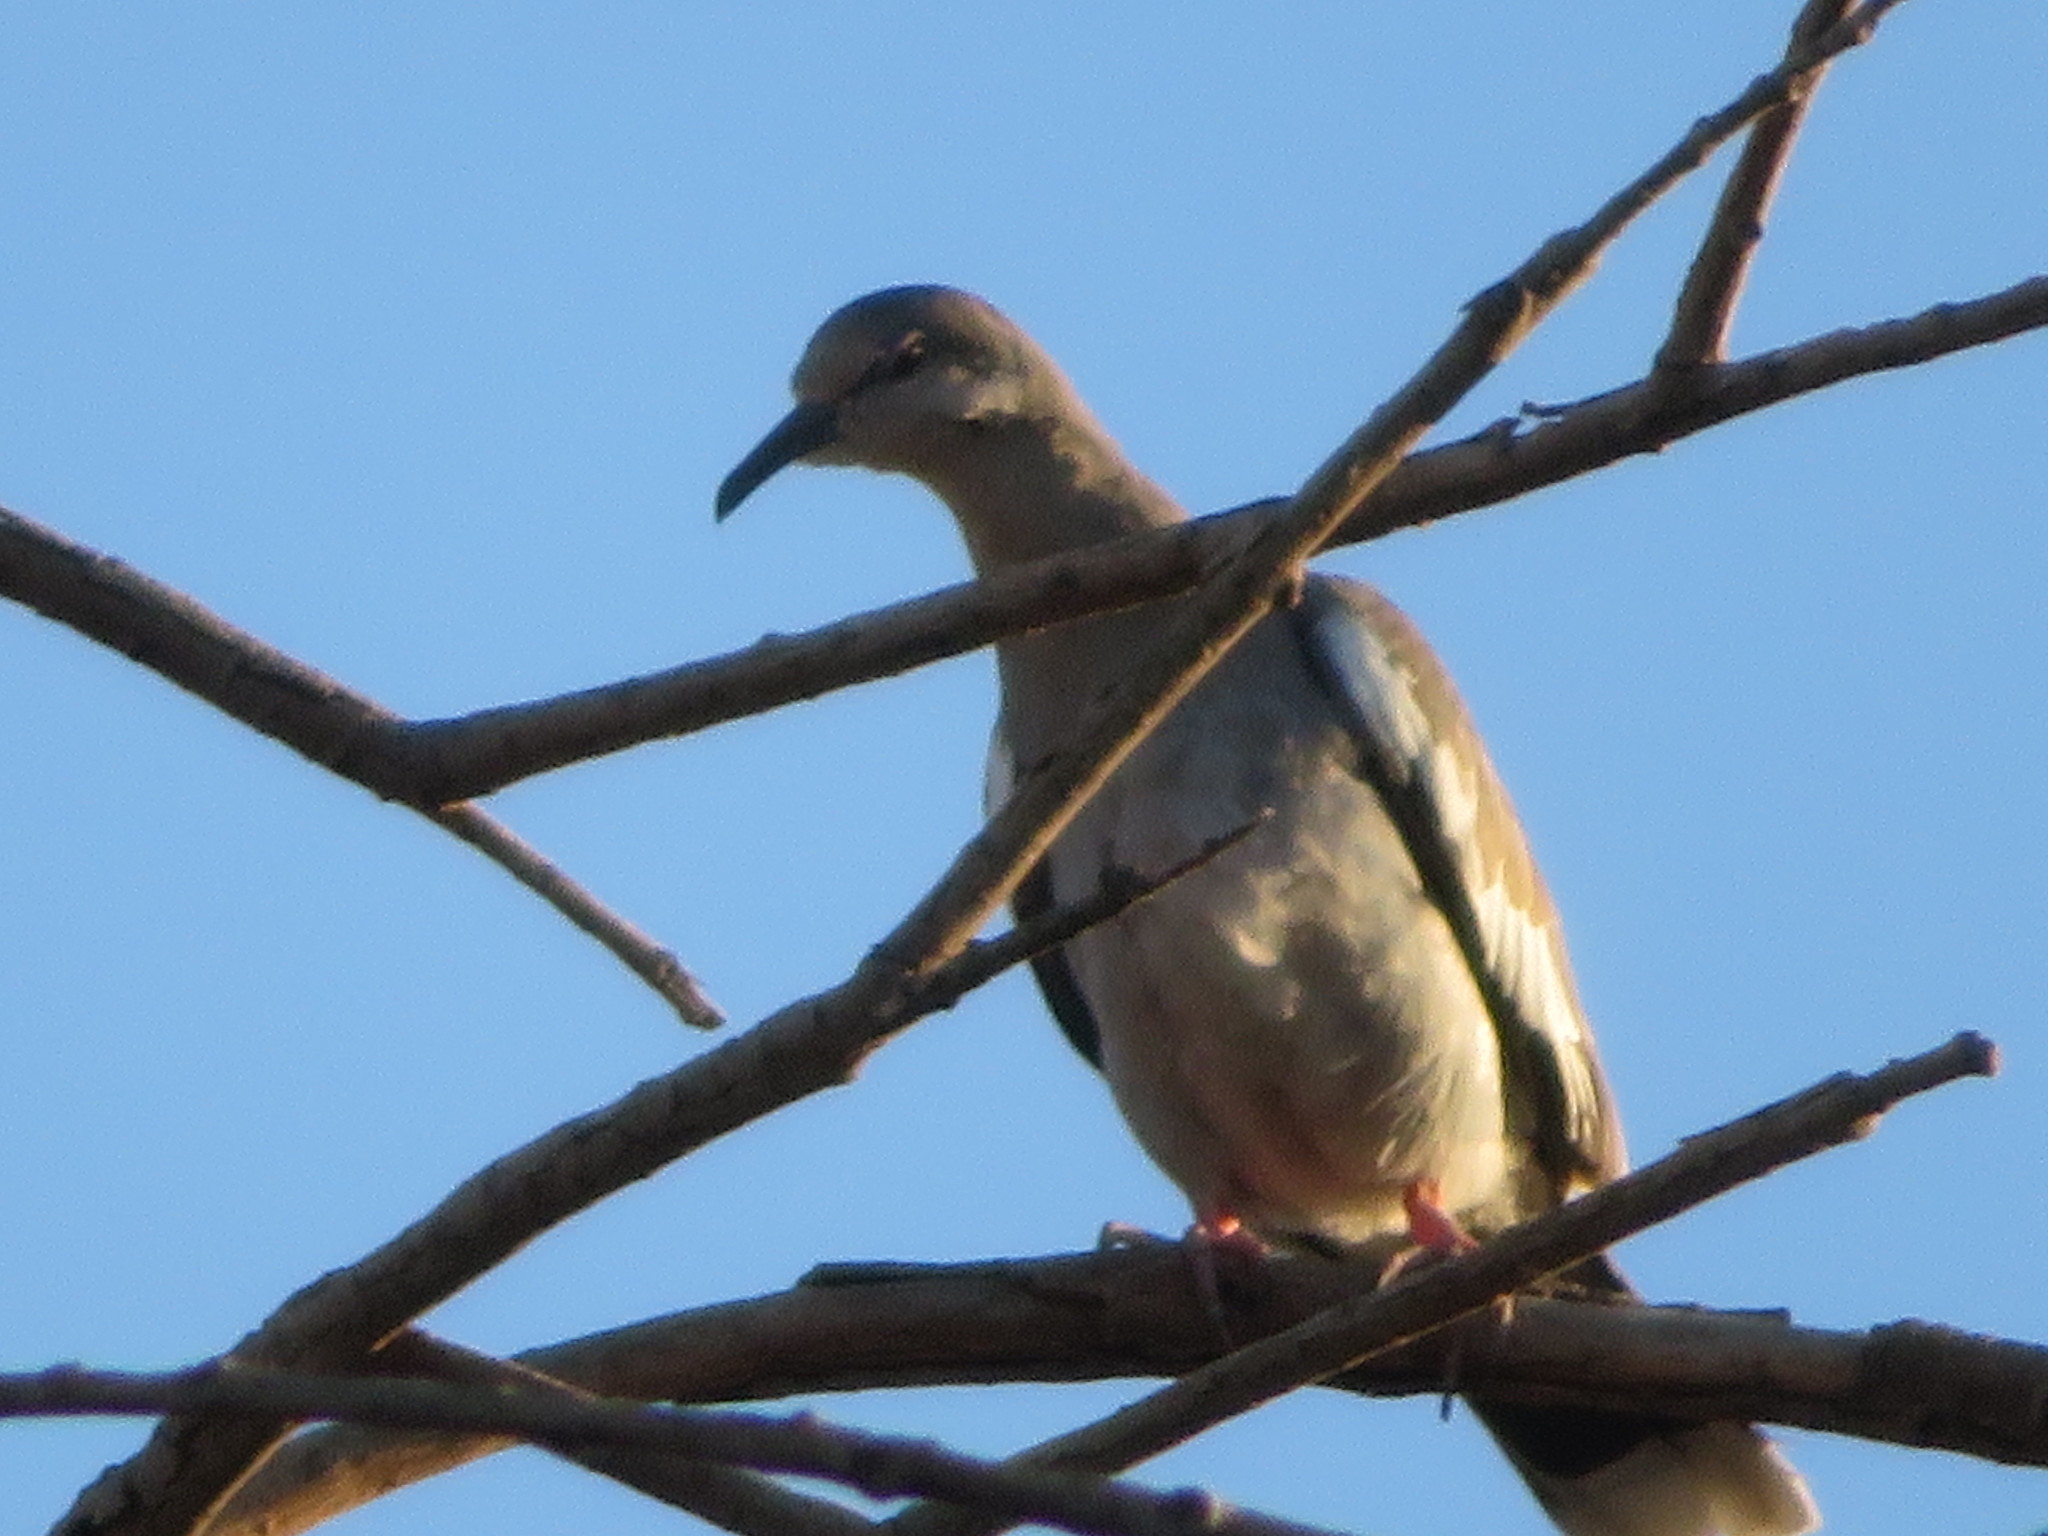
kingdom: Animalia
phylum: Chordata
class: Aves
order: Columbiformes
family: Columbidae
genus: Zenaida
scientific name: Zenaida asiatica
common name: White-winged dove
